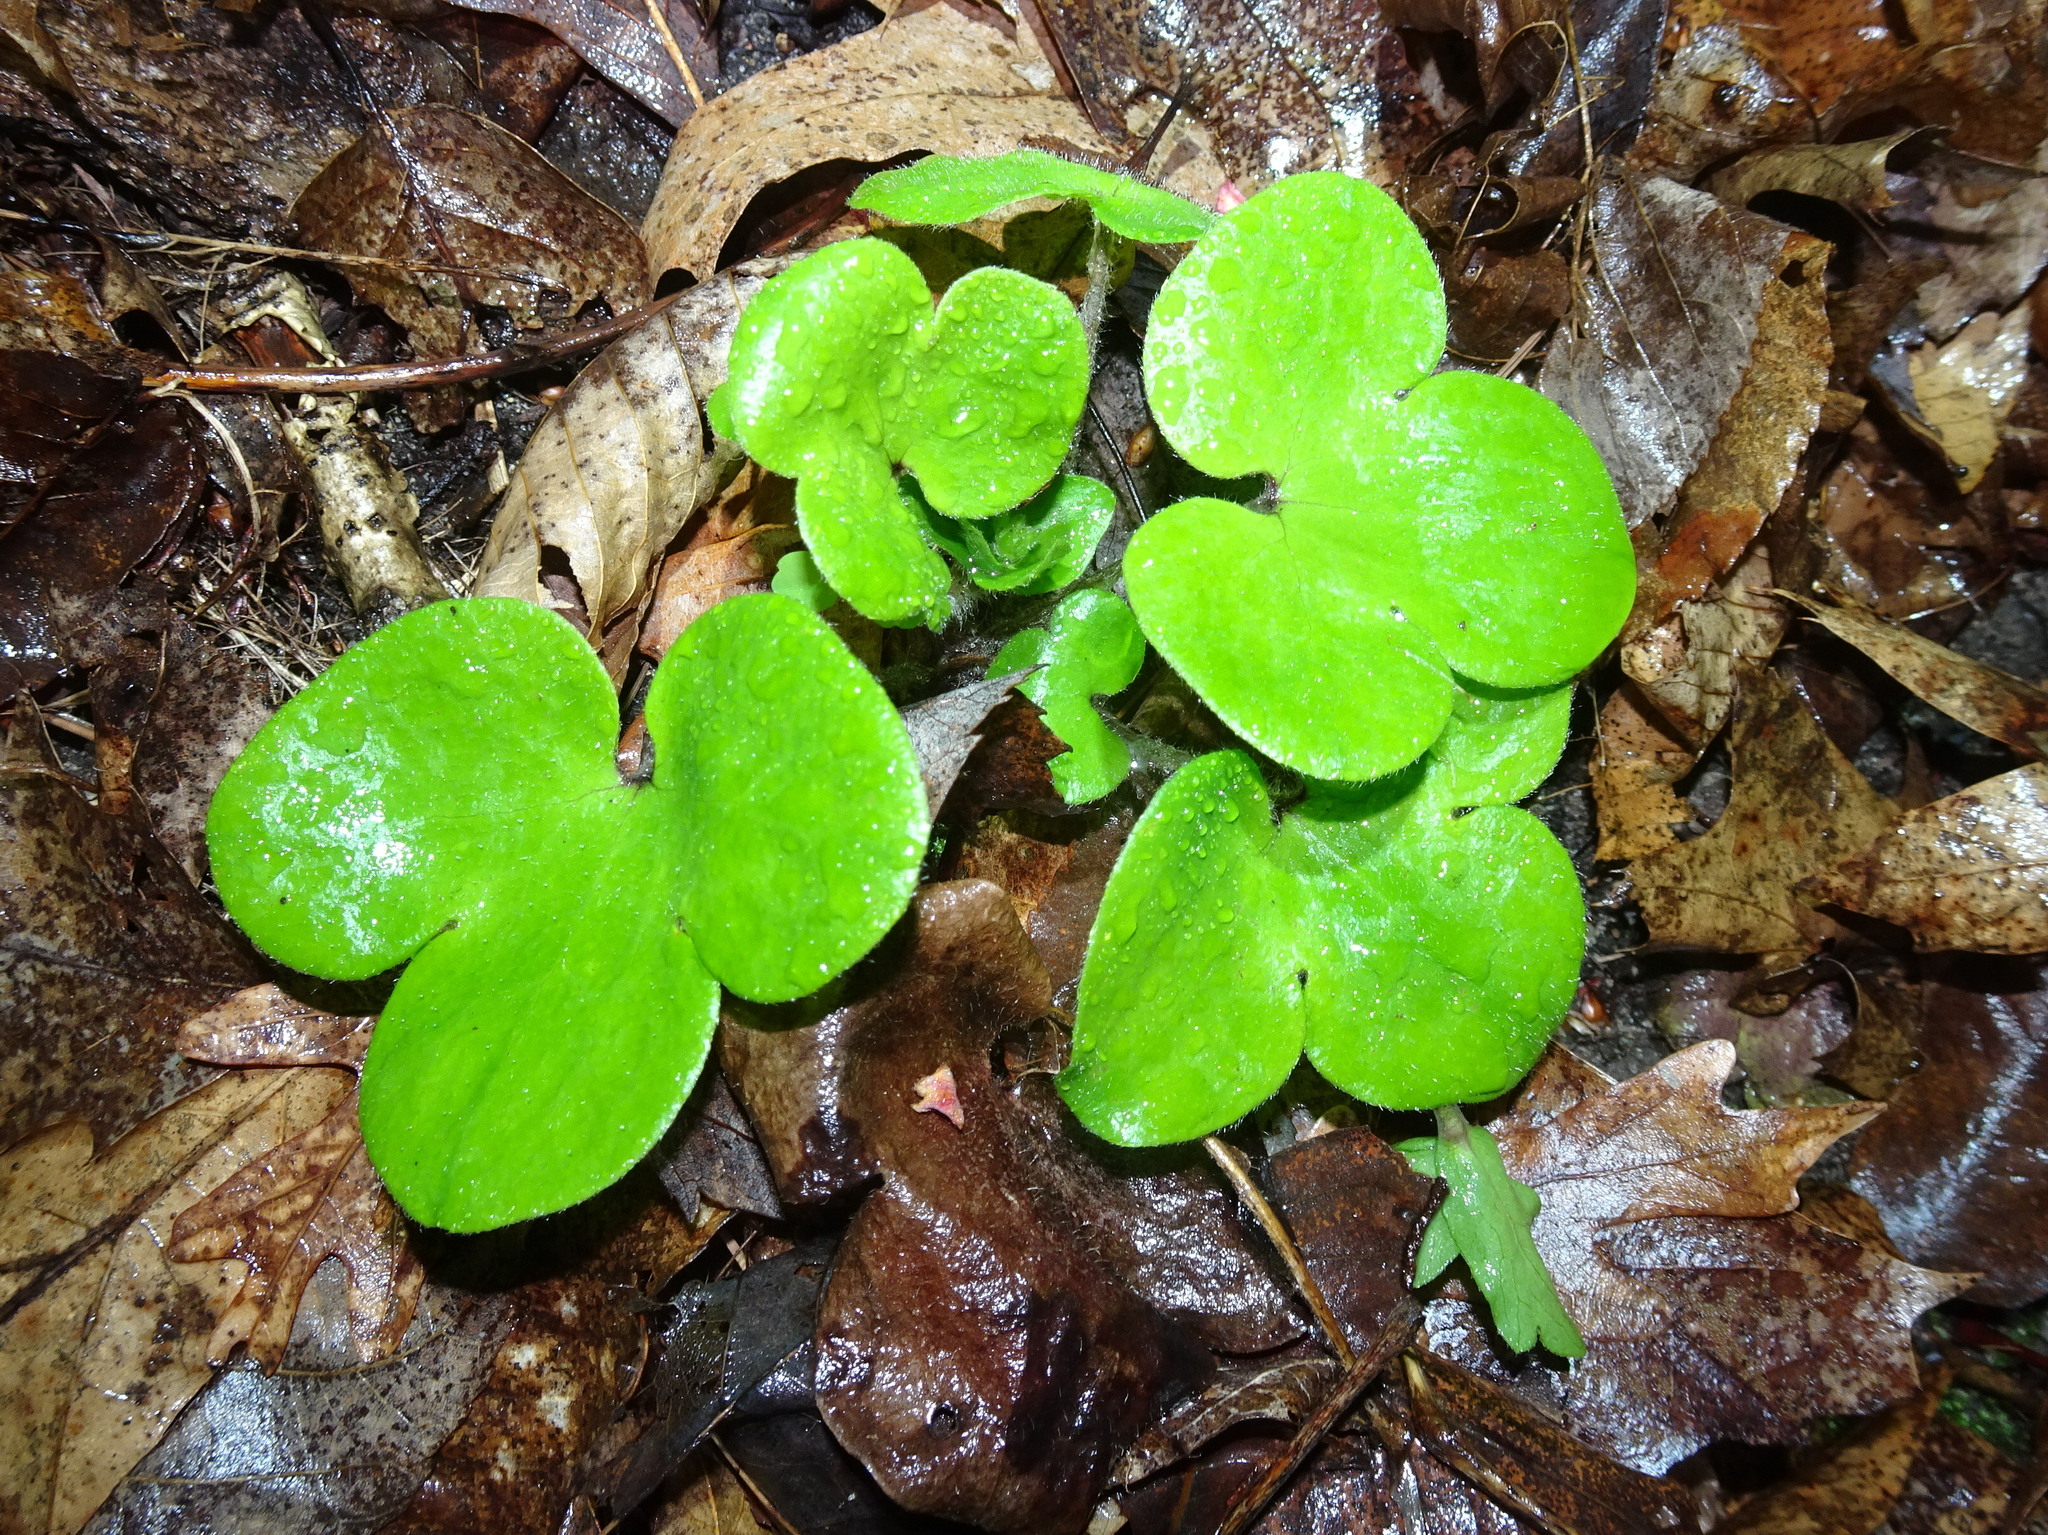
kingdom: Plantae
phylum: Tracheophyta
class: Magnoliopsida
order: Ranunculales
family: Ranunculaceae
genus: Hepatica
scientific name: Hepatica americana
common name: American hepatica
